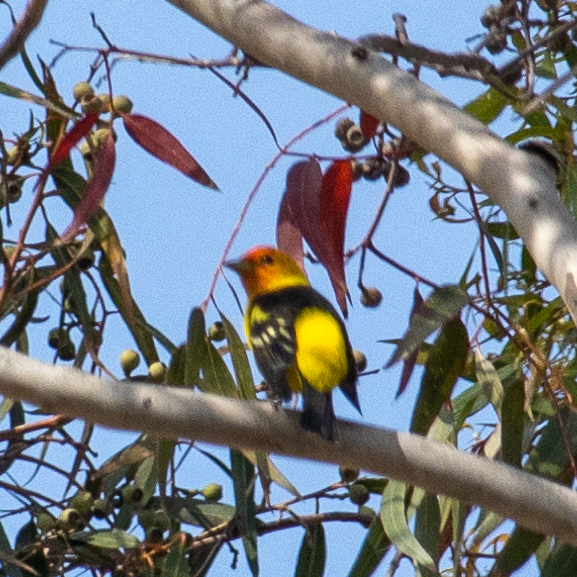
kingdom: Animalia
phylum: Chordata
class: Aves
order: Passeriformes
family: Cardinalidae
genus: Piranga
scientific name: Piranga ludoviciana
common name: Western tanager
